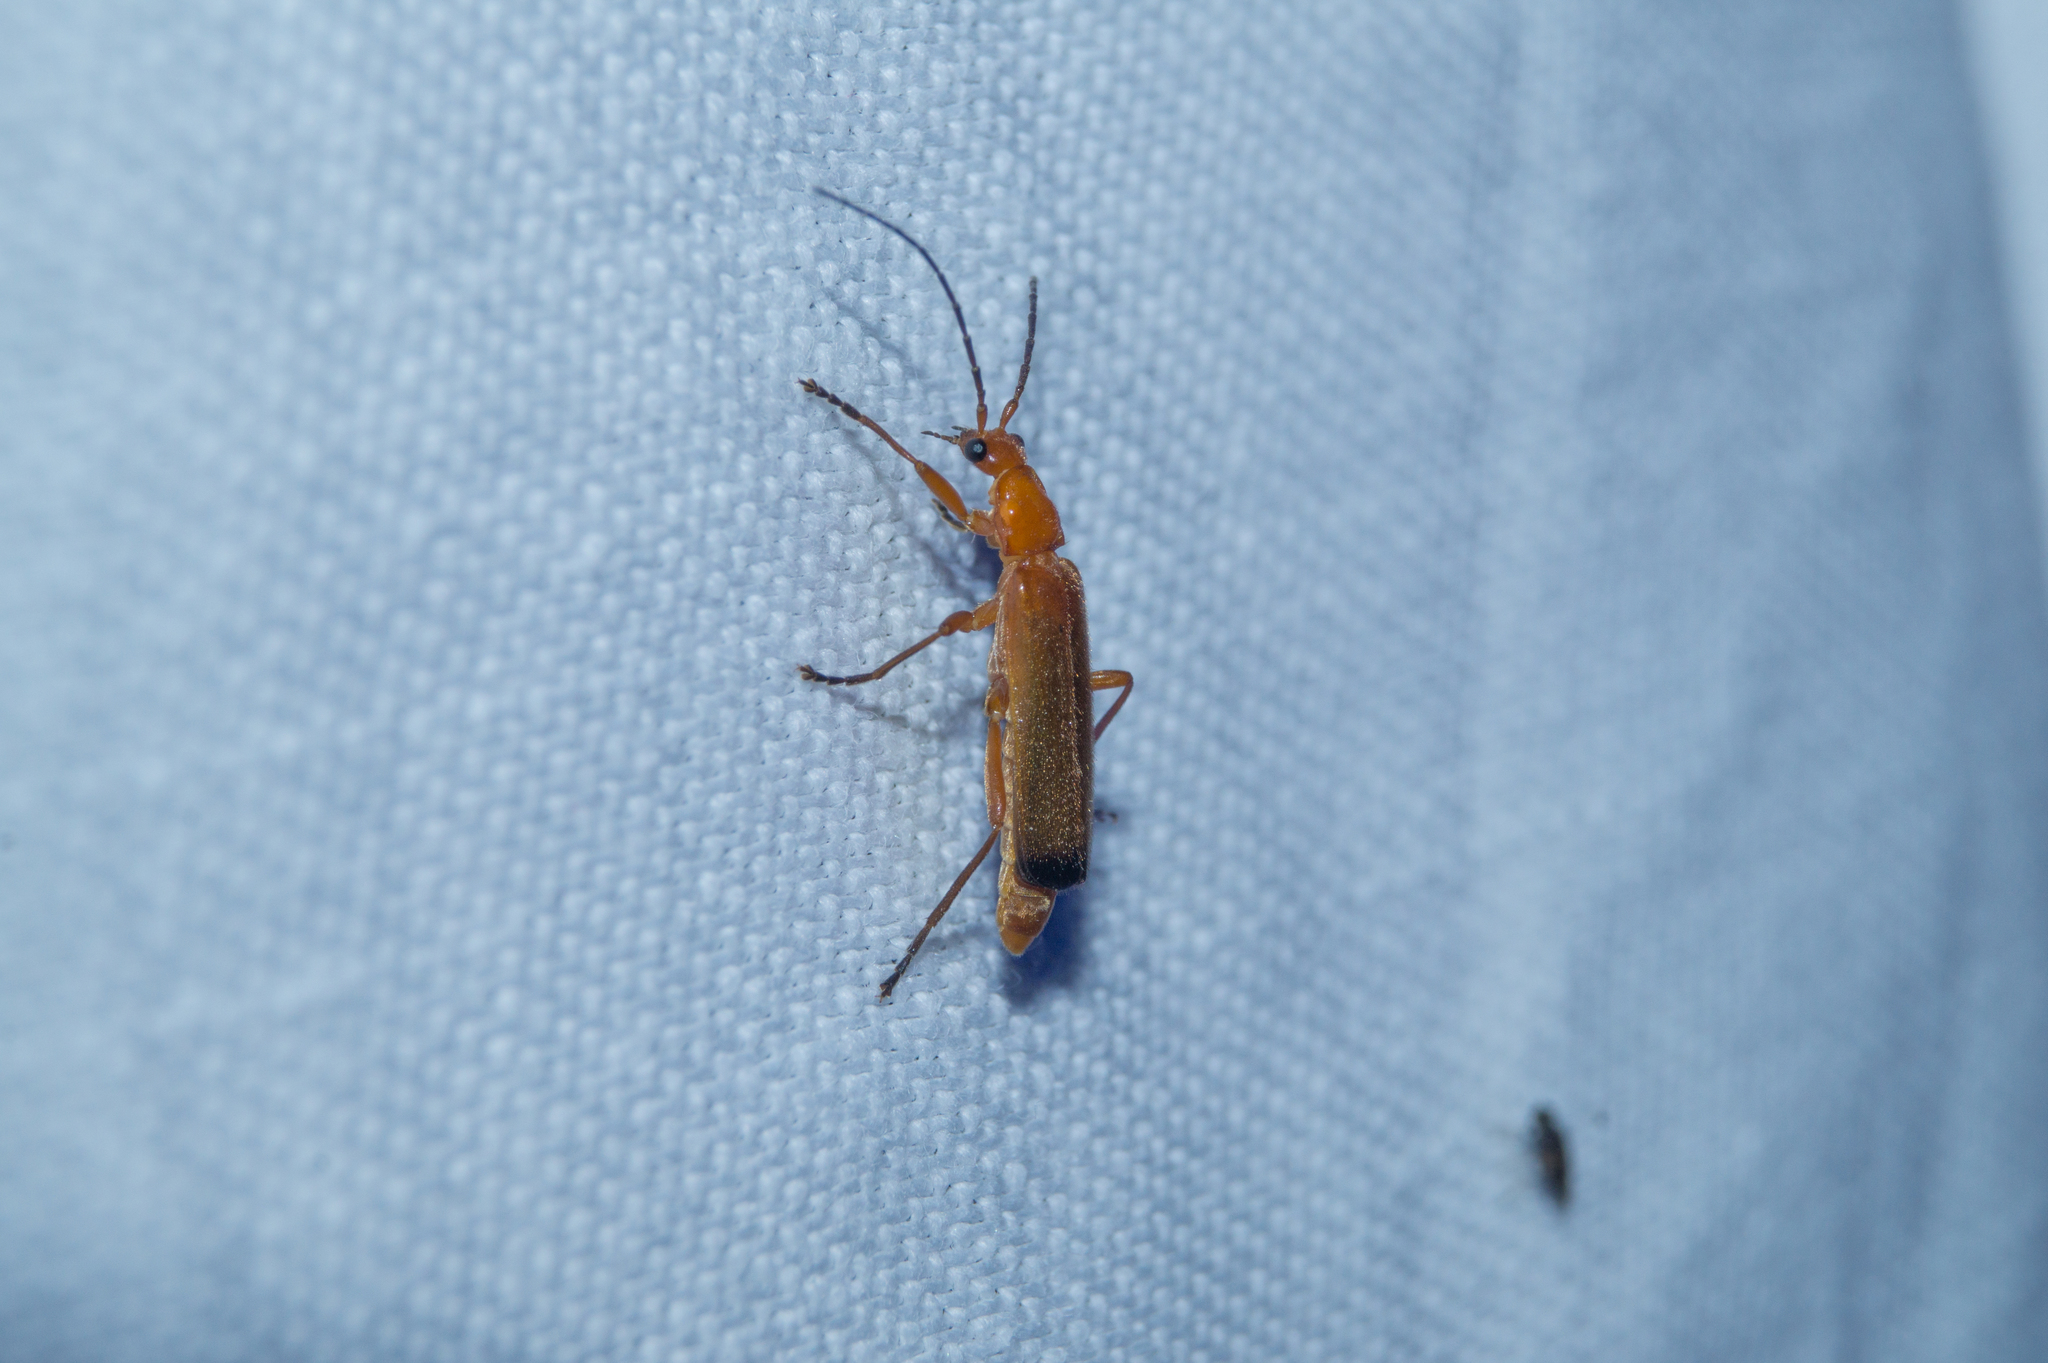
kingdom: Animalia
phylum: Arthropoda
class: Insecta
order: Coleoptera
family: Cantharidae
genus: Rhagonycha
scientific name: Rhagonycha fulva
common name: Common red soldier beetle
